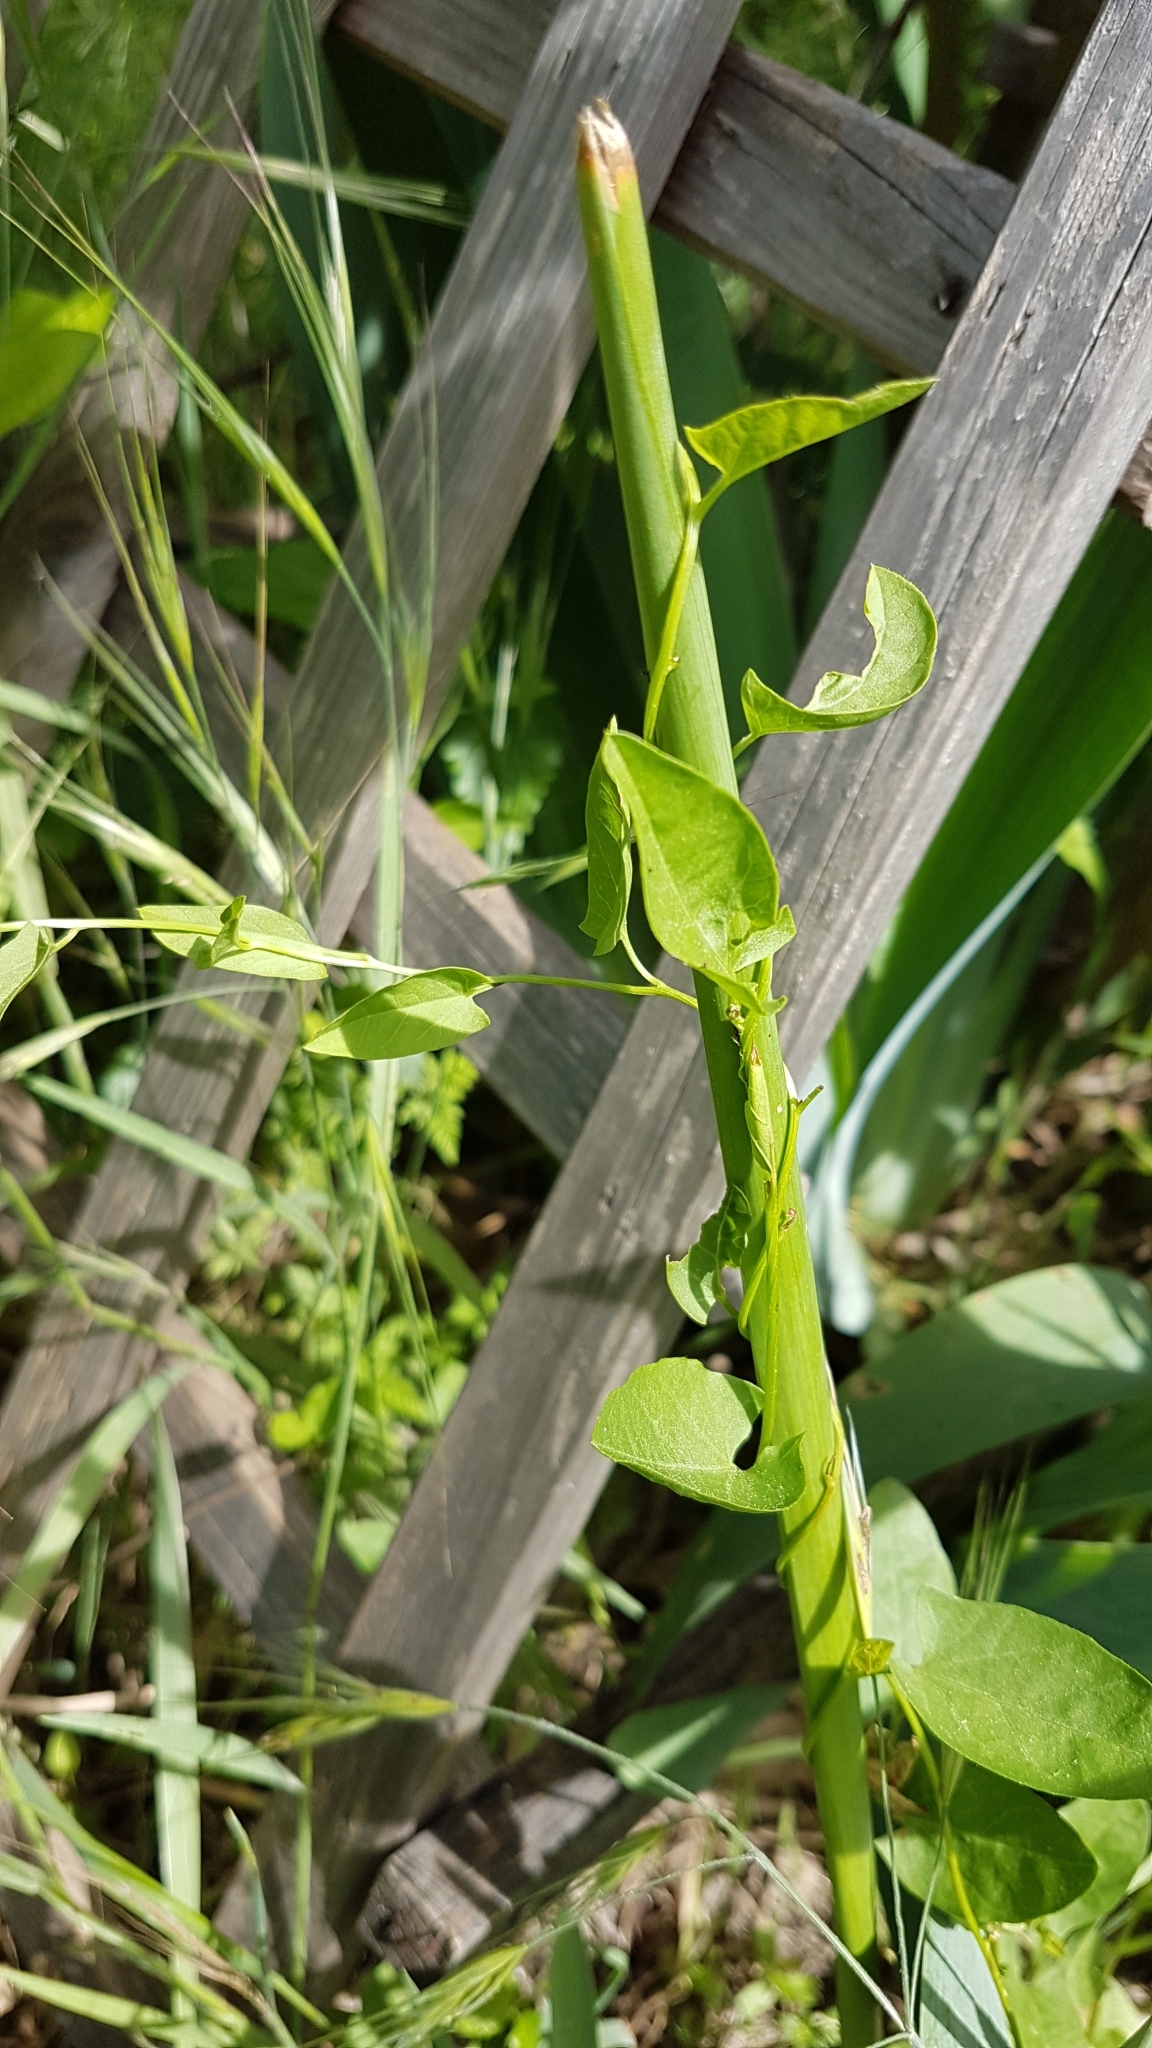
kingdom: Plantae
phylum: Tracheophyta
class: Magnoliopsida
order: Solanales
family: Convolvulaceae
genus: Convolvulus
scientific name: Convolvulus arvensis
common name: Field bindweed
